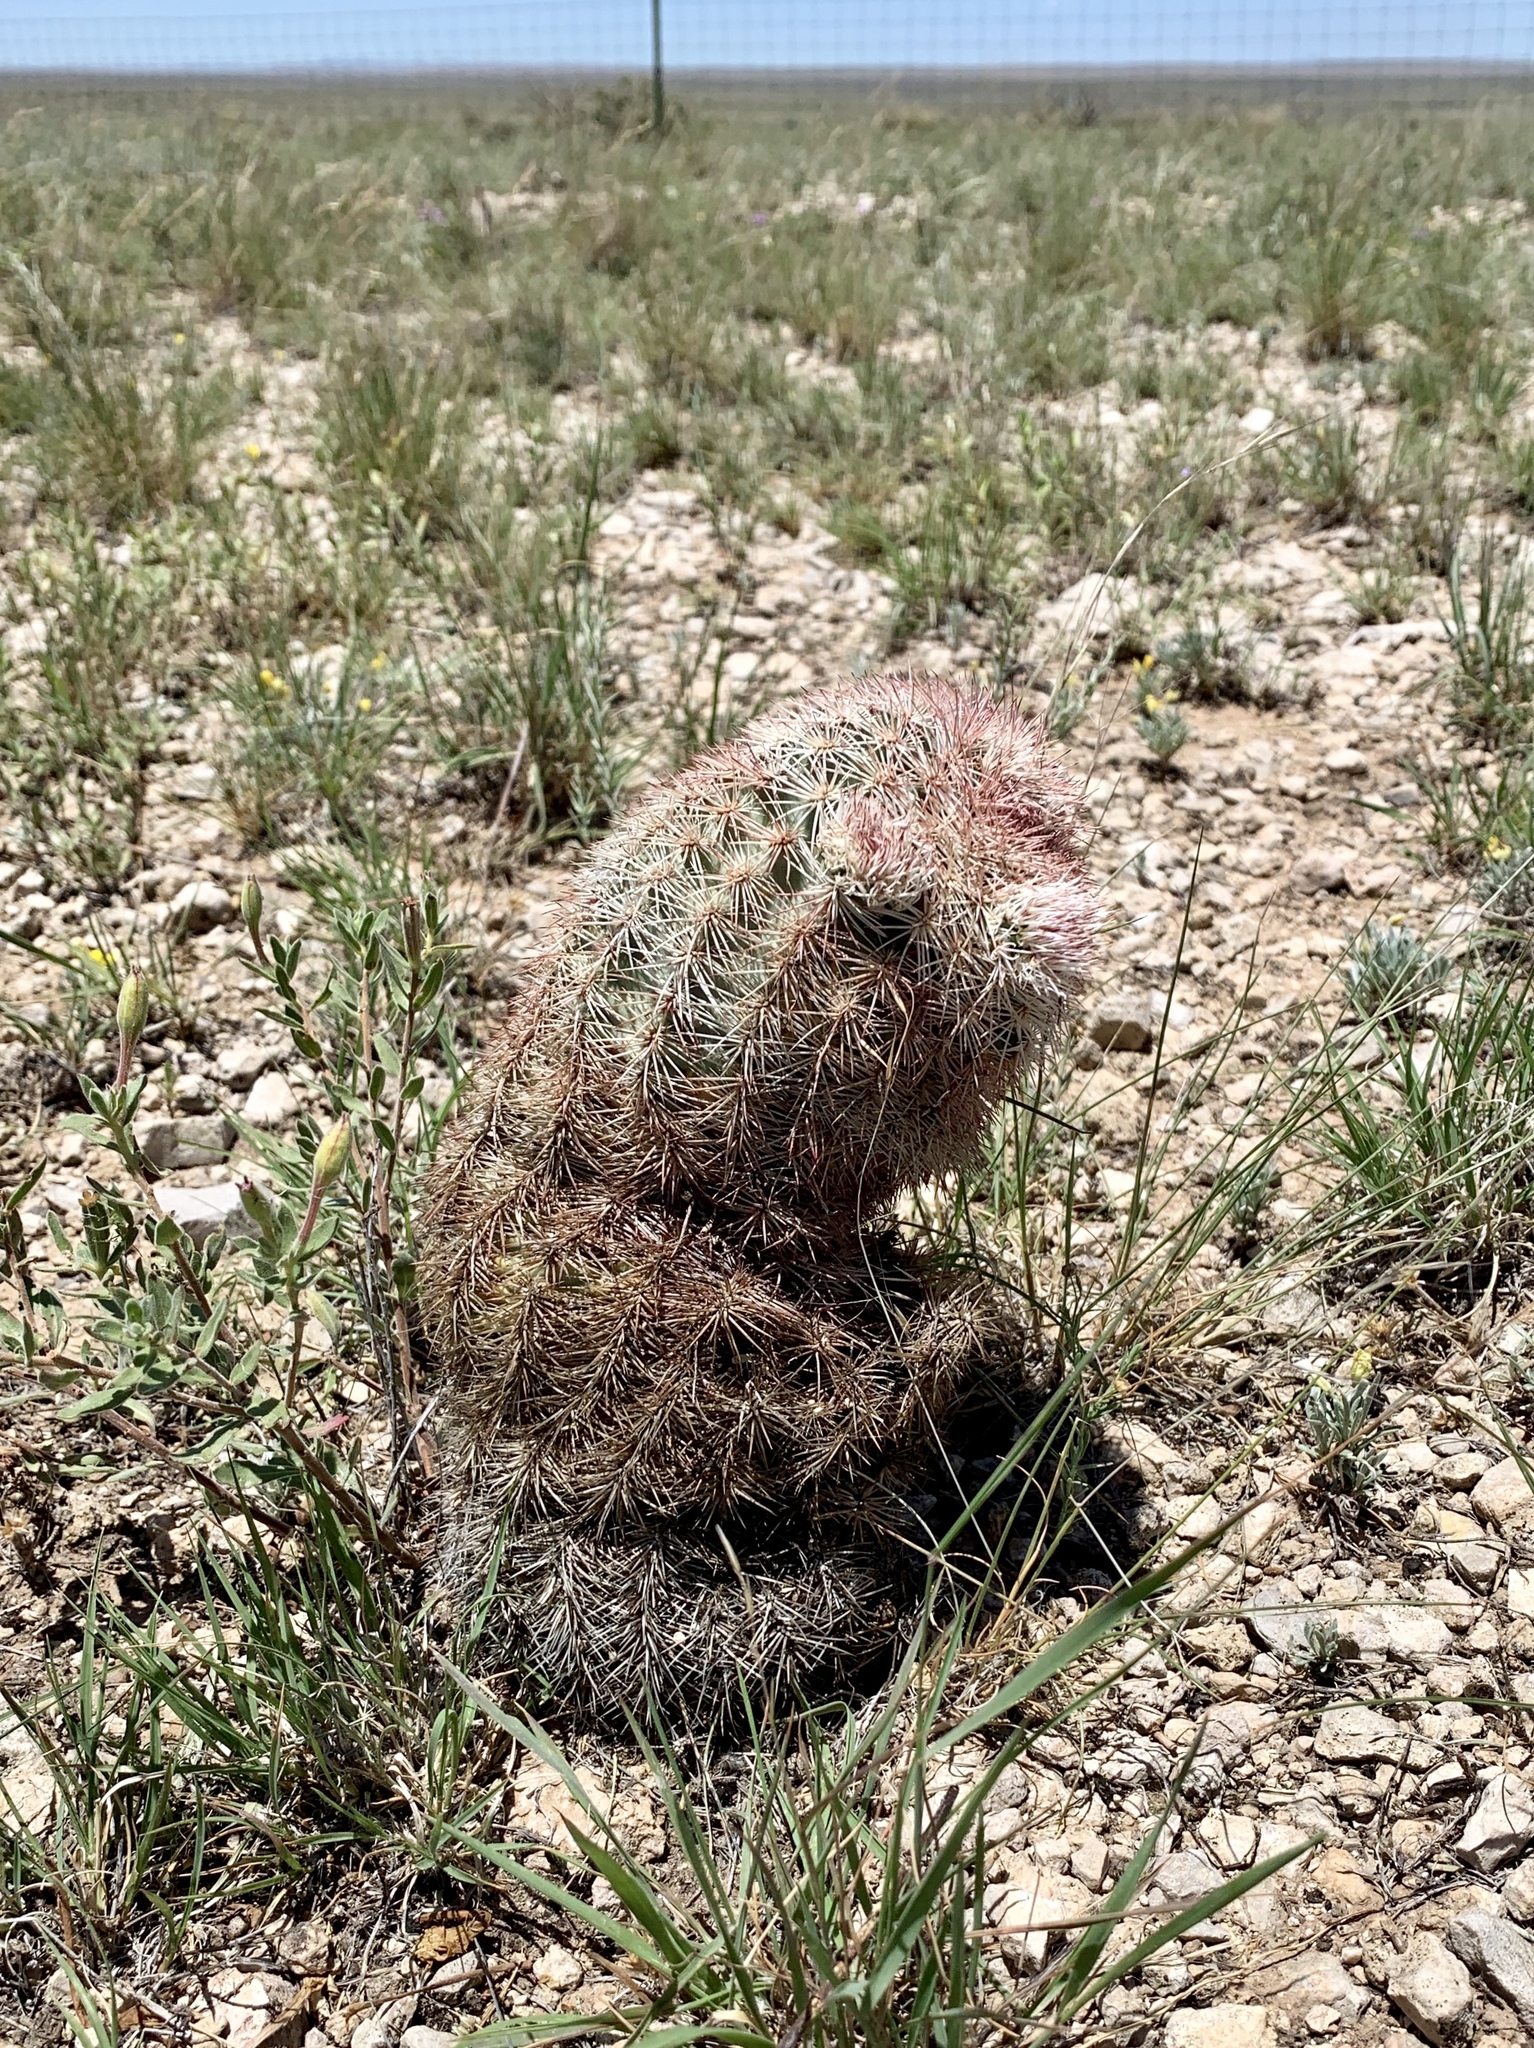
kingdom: Plantae
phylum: Tracheophyta
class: Magnoliopsida
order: Caryophyllales
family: Cactaceae
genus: Echinocereus
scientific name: Echinocereus dasyacanthus
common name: Spiny hedgehog cactus
